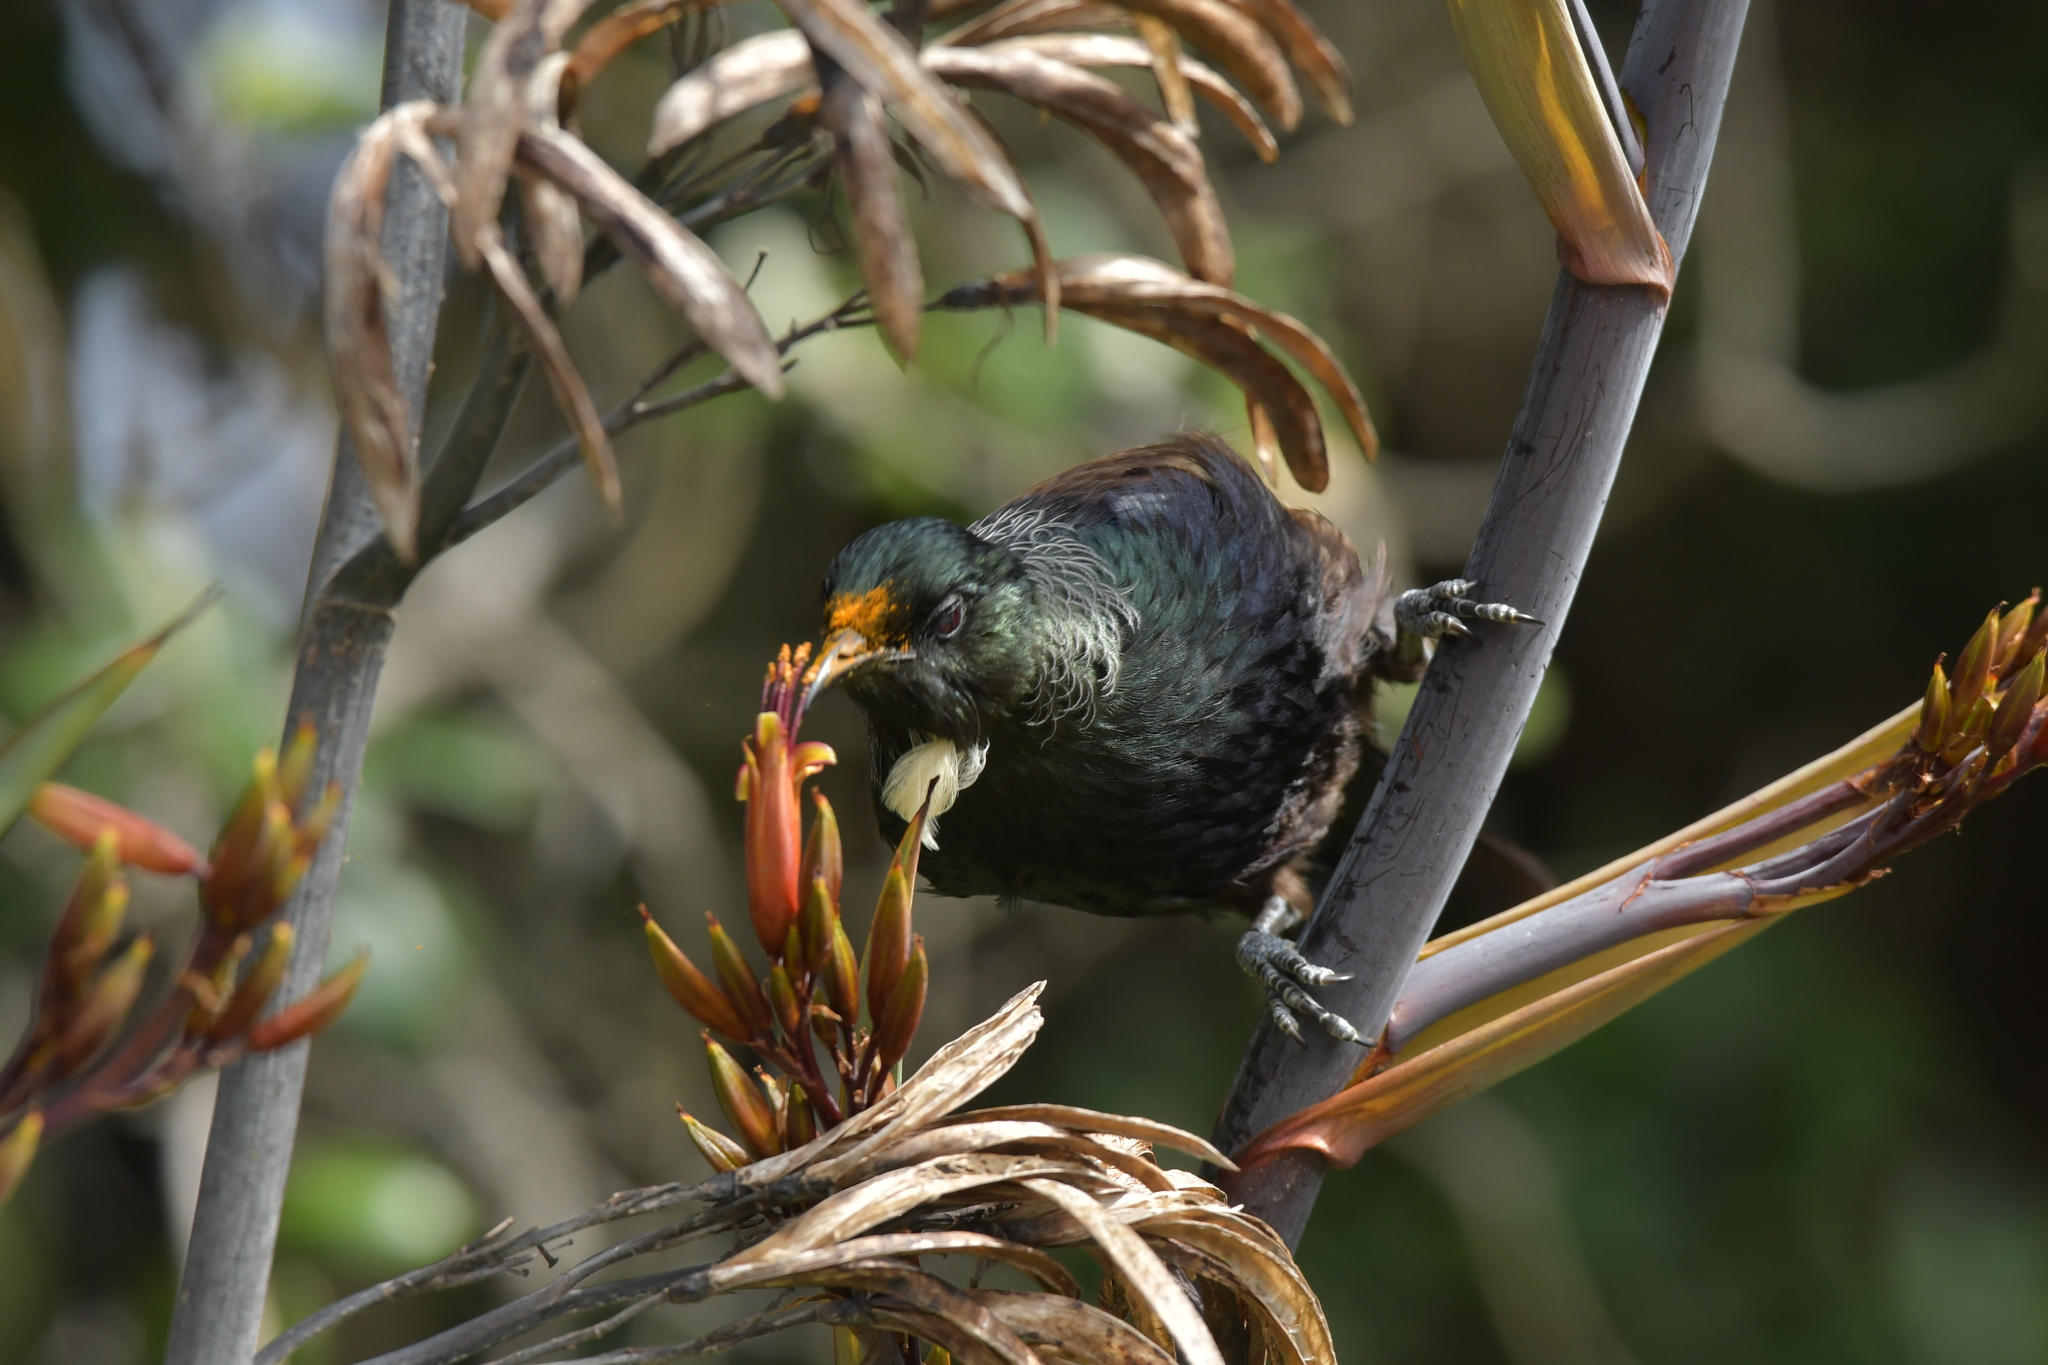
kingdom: Animalia
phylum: Chordata
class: Aves
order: Passeriformes
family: Meliphagidae
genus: Prosthemadera
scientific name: Prosthemadera novaeseelandiae
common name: Tui
